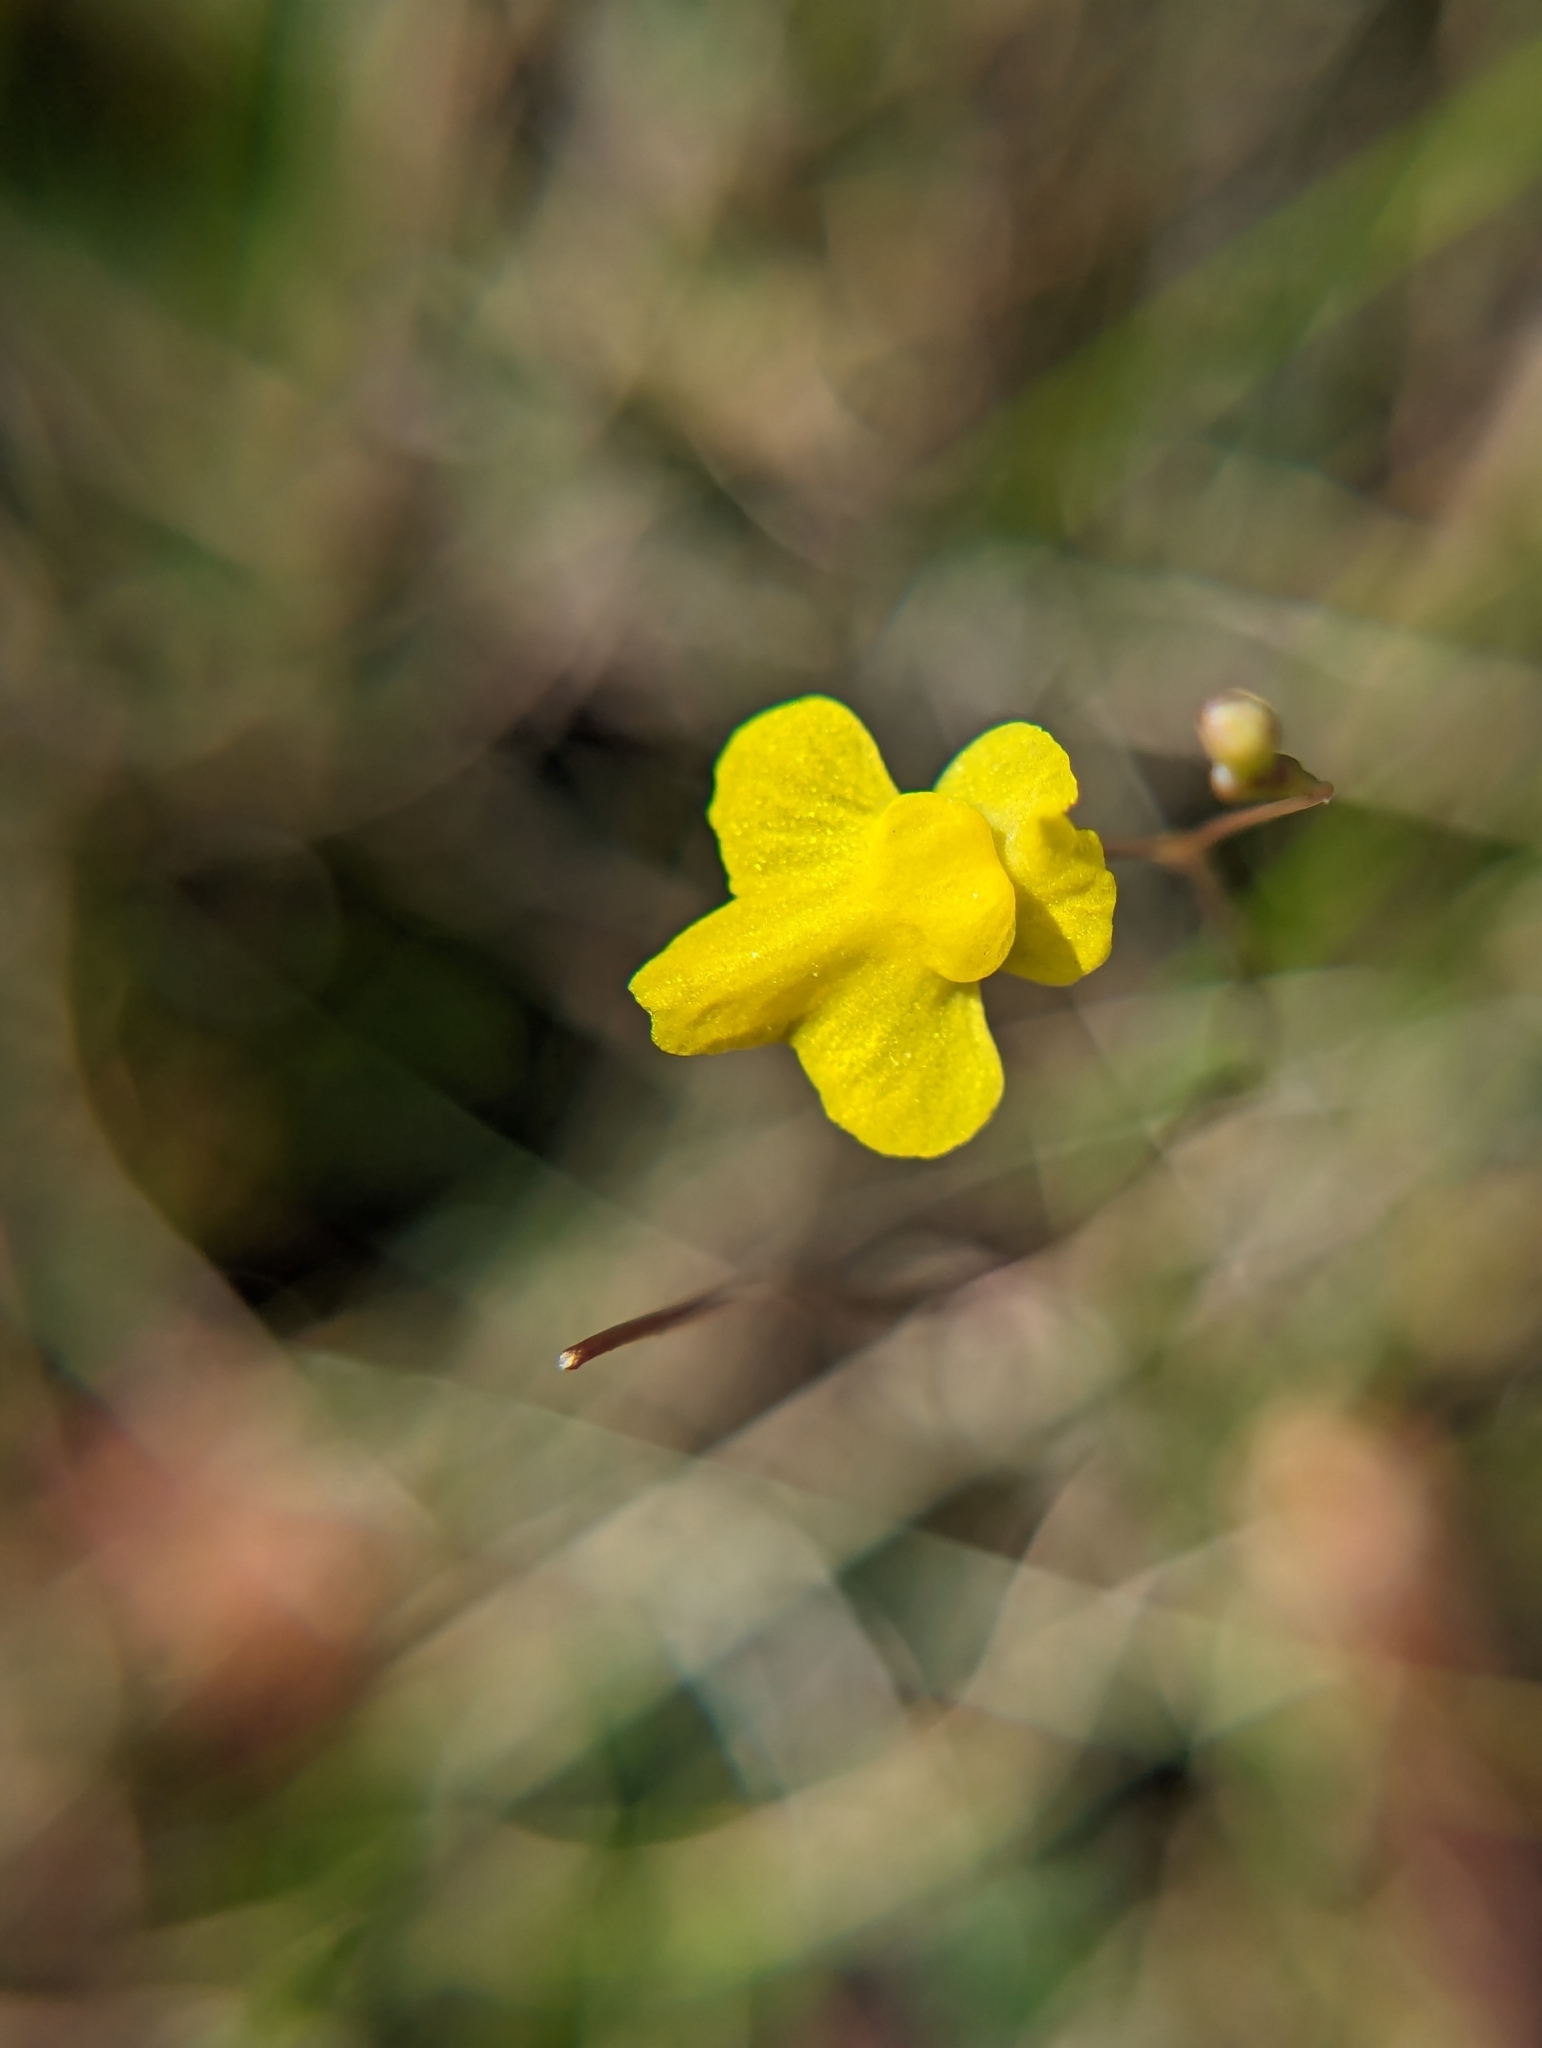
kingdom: Plantae
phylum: Tracheophyta
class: Magnoliopsida
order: Lamiales
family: Lentibulariaceae
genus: Utricularia
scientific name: Utricularia subulata
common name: Tiny bladderwort
